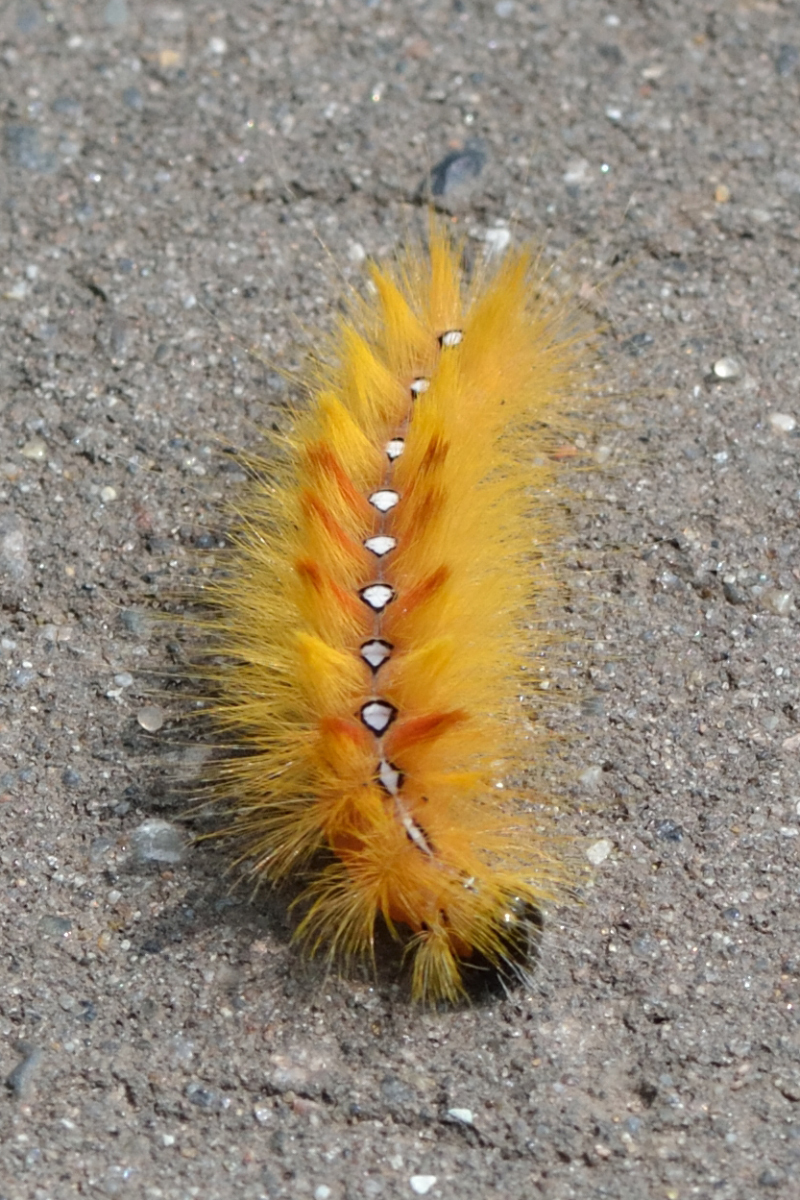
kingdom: Animalia
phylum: Arthropoda
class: Insecta
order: Lepidoptera
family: Noctuidae
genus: Acronicta
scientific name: Acronicta aceris
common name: Sycamore
